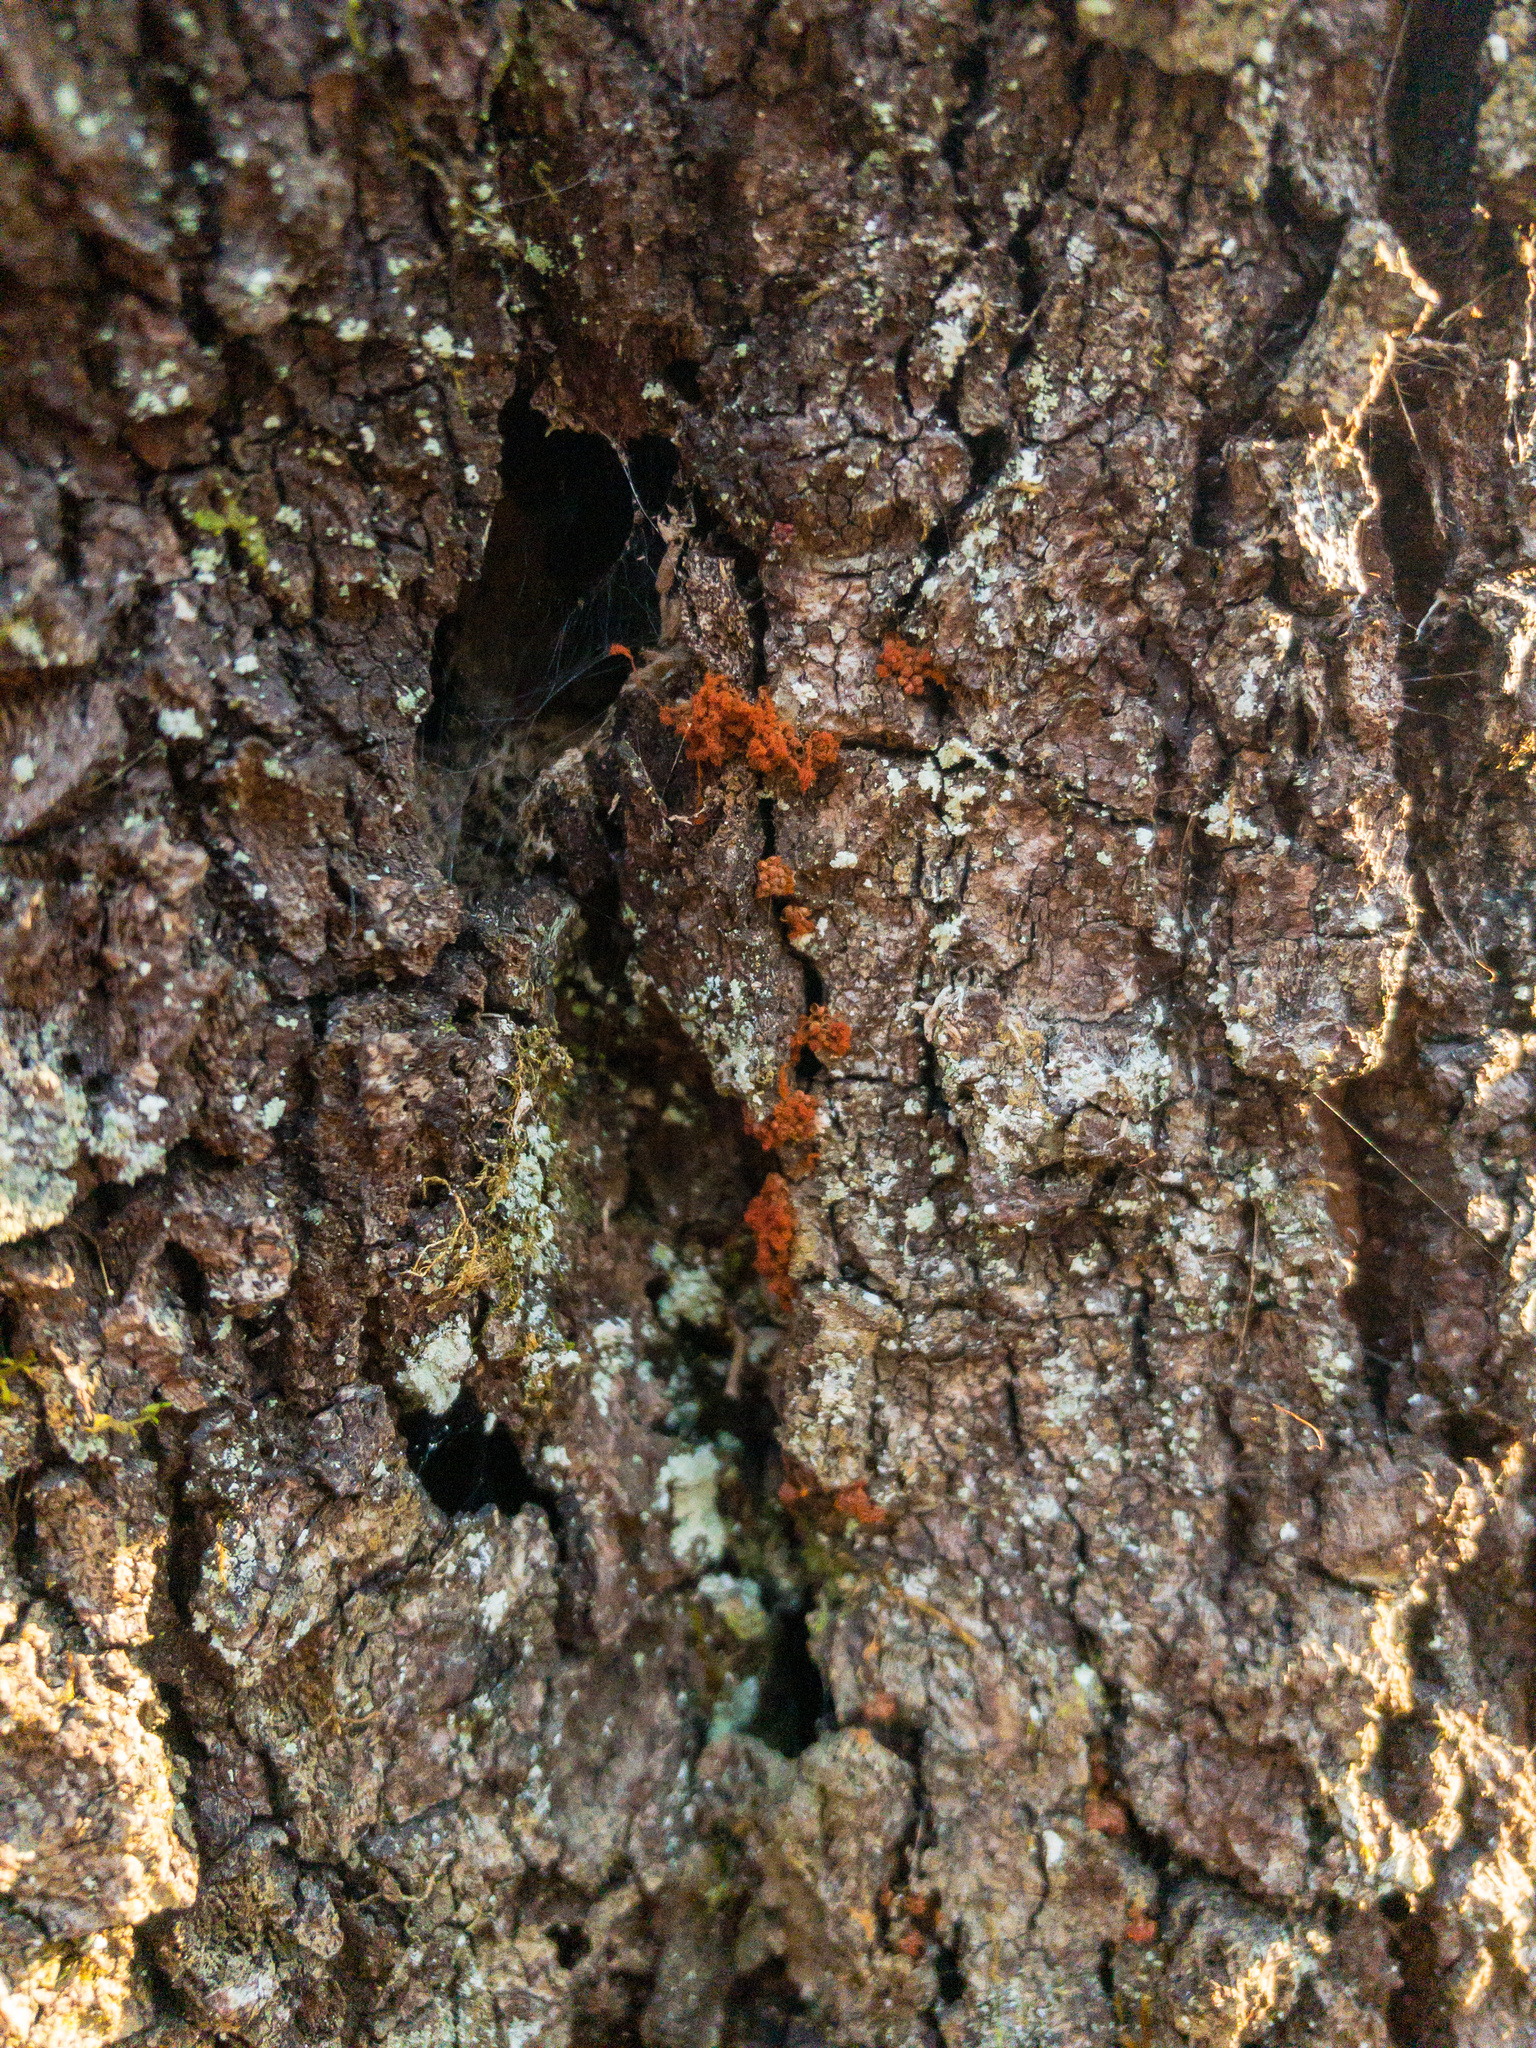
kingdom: Protozoa
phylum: Mycetozoa
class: Myxomycetes
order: Trichiales
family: Trichiaceae
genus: Metatrichia
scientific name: Metatrichia vesparia
